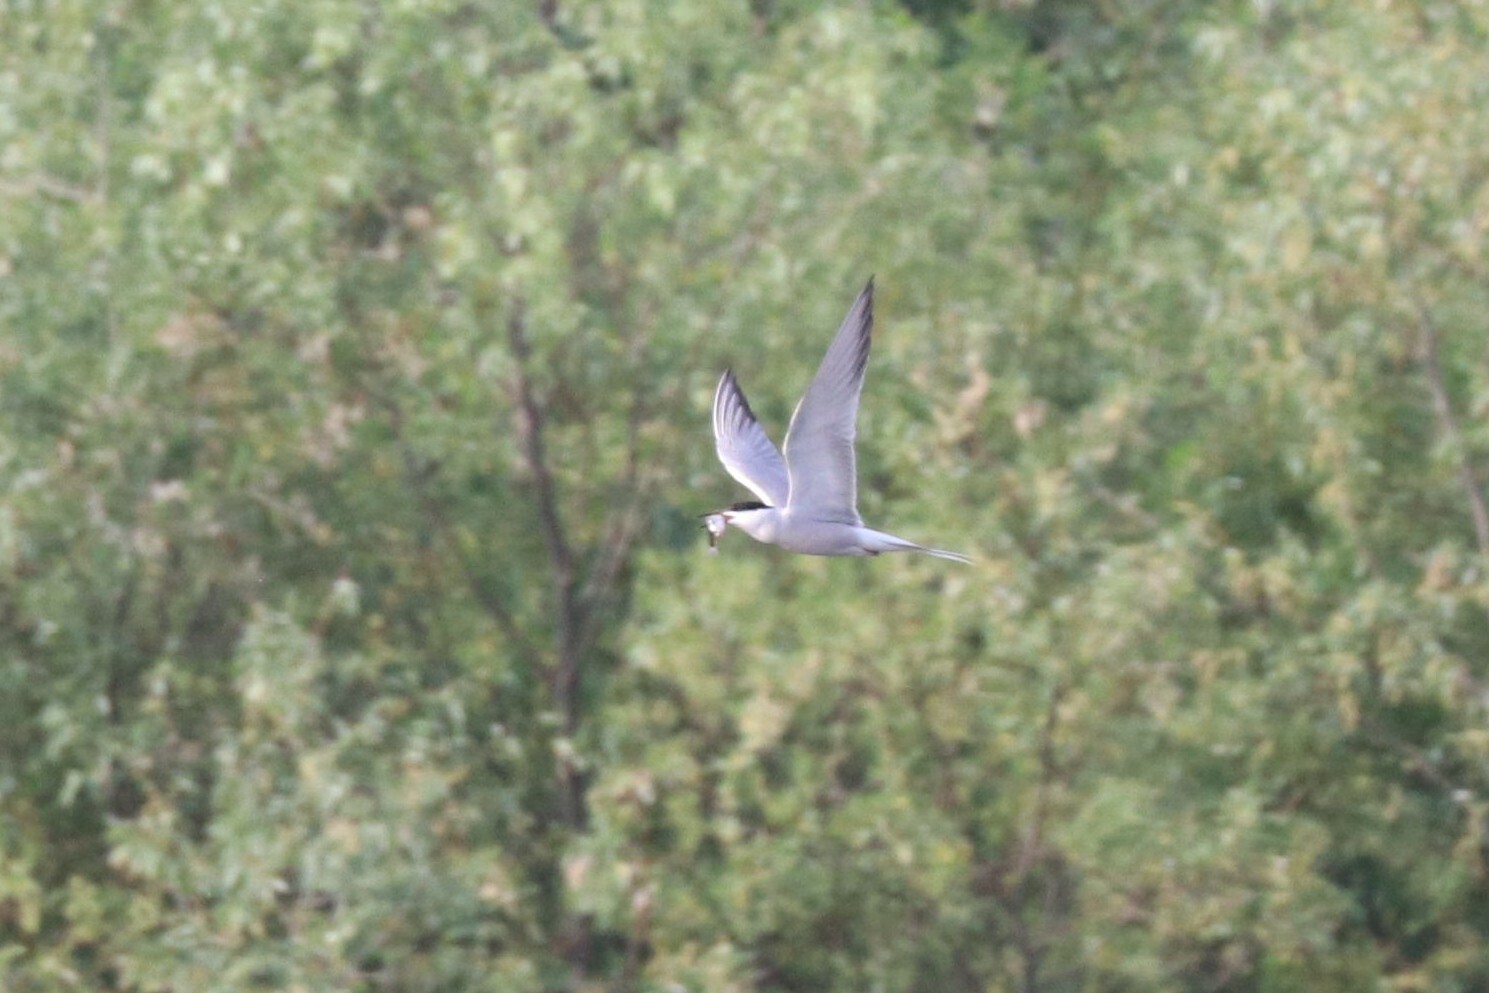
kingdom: Animalia
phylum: Chordata
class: Aves
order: Charadriiformes
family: Laridae
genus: Sterna
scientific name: Sterna hirundo
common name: Common tern
